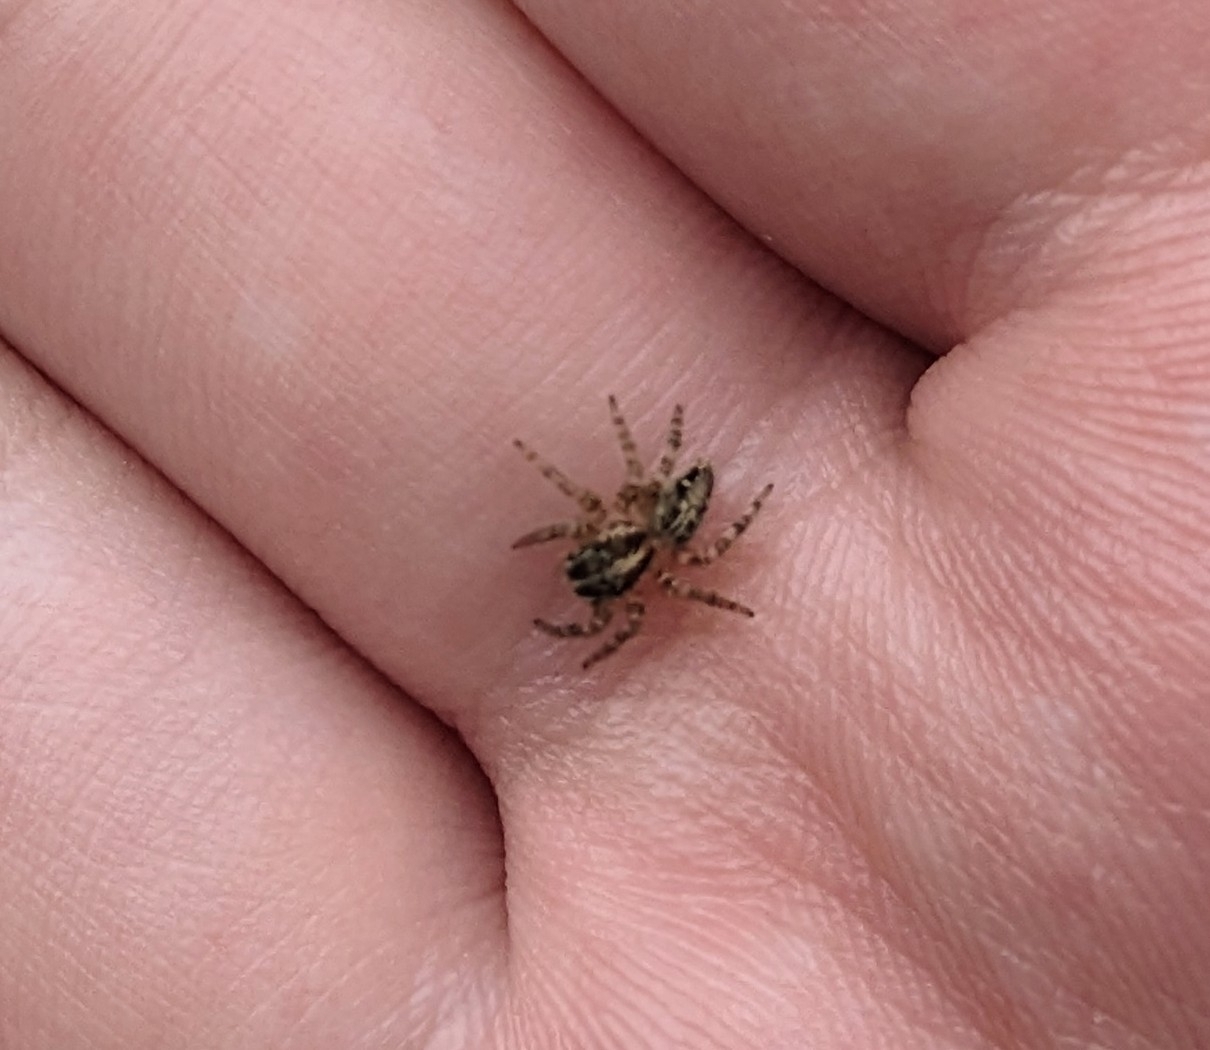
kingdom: Animalia
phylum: Arthropoda
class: Arachnida
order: Araneae
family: Salticidae
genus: Plexippus
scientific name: Plexippus paykulli
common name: Pantropical jumper
